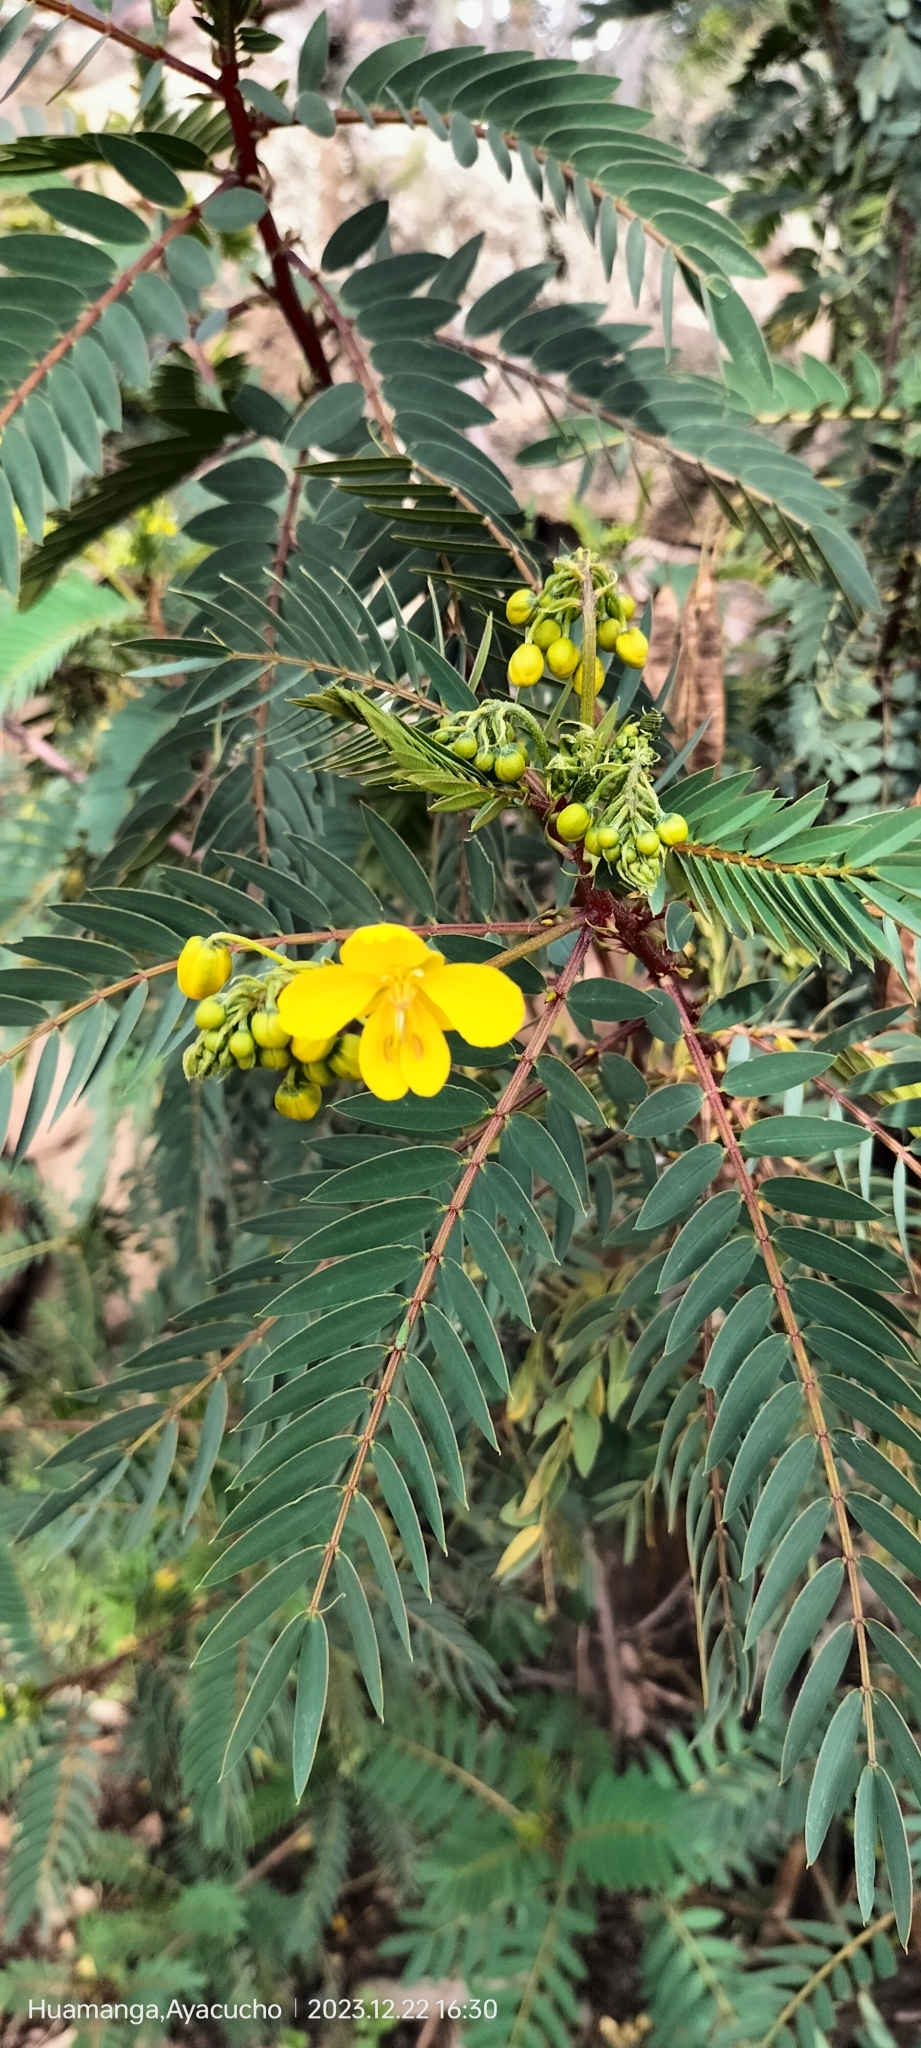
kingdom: Plantae
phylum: Tracheophyta
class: Magnoliopsida
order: Fabales
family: Fabaceae
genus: Senna
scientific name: Senna versicolor
